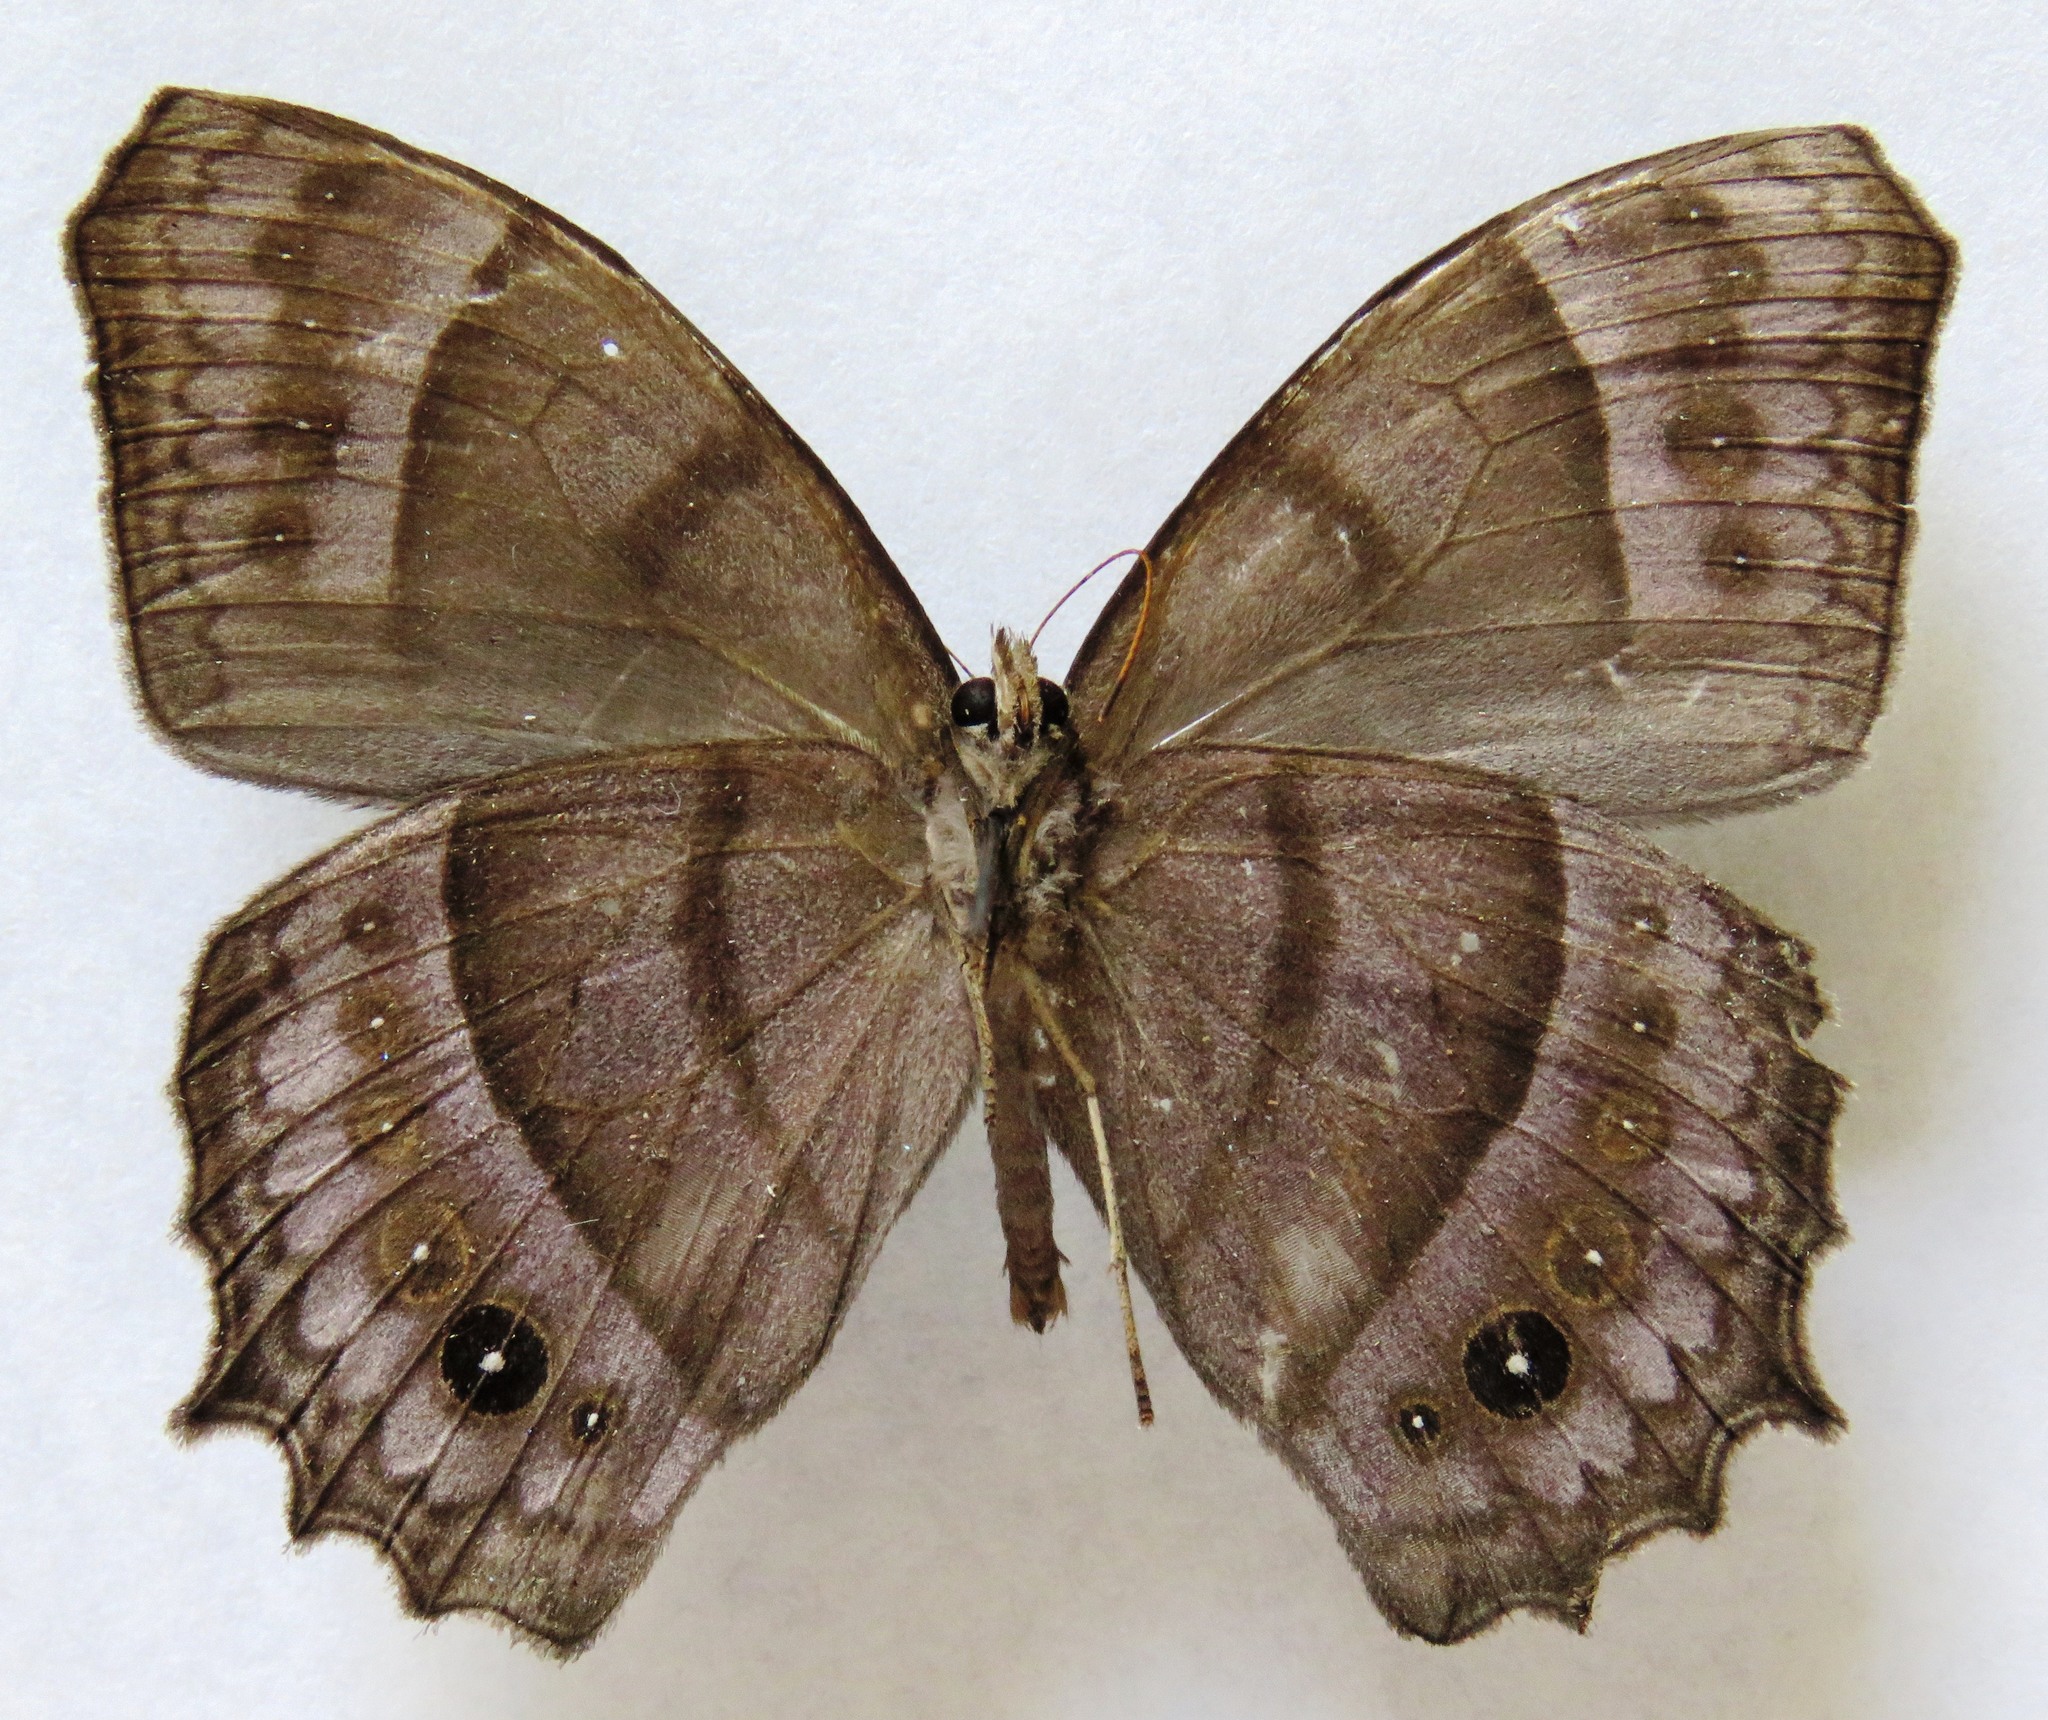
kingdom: Animalia
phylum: Arthropoda
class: Insecta
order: Lepidoptera
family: Nymphalidae
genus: Taygetis
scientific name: Taygetis inconspicua
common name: Inconspicuous satyr
